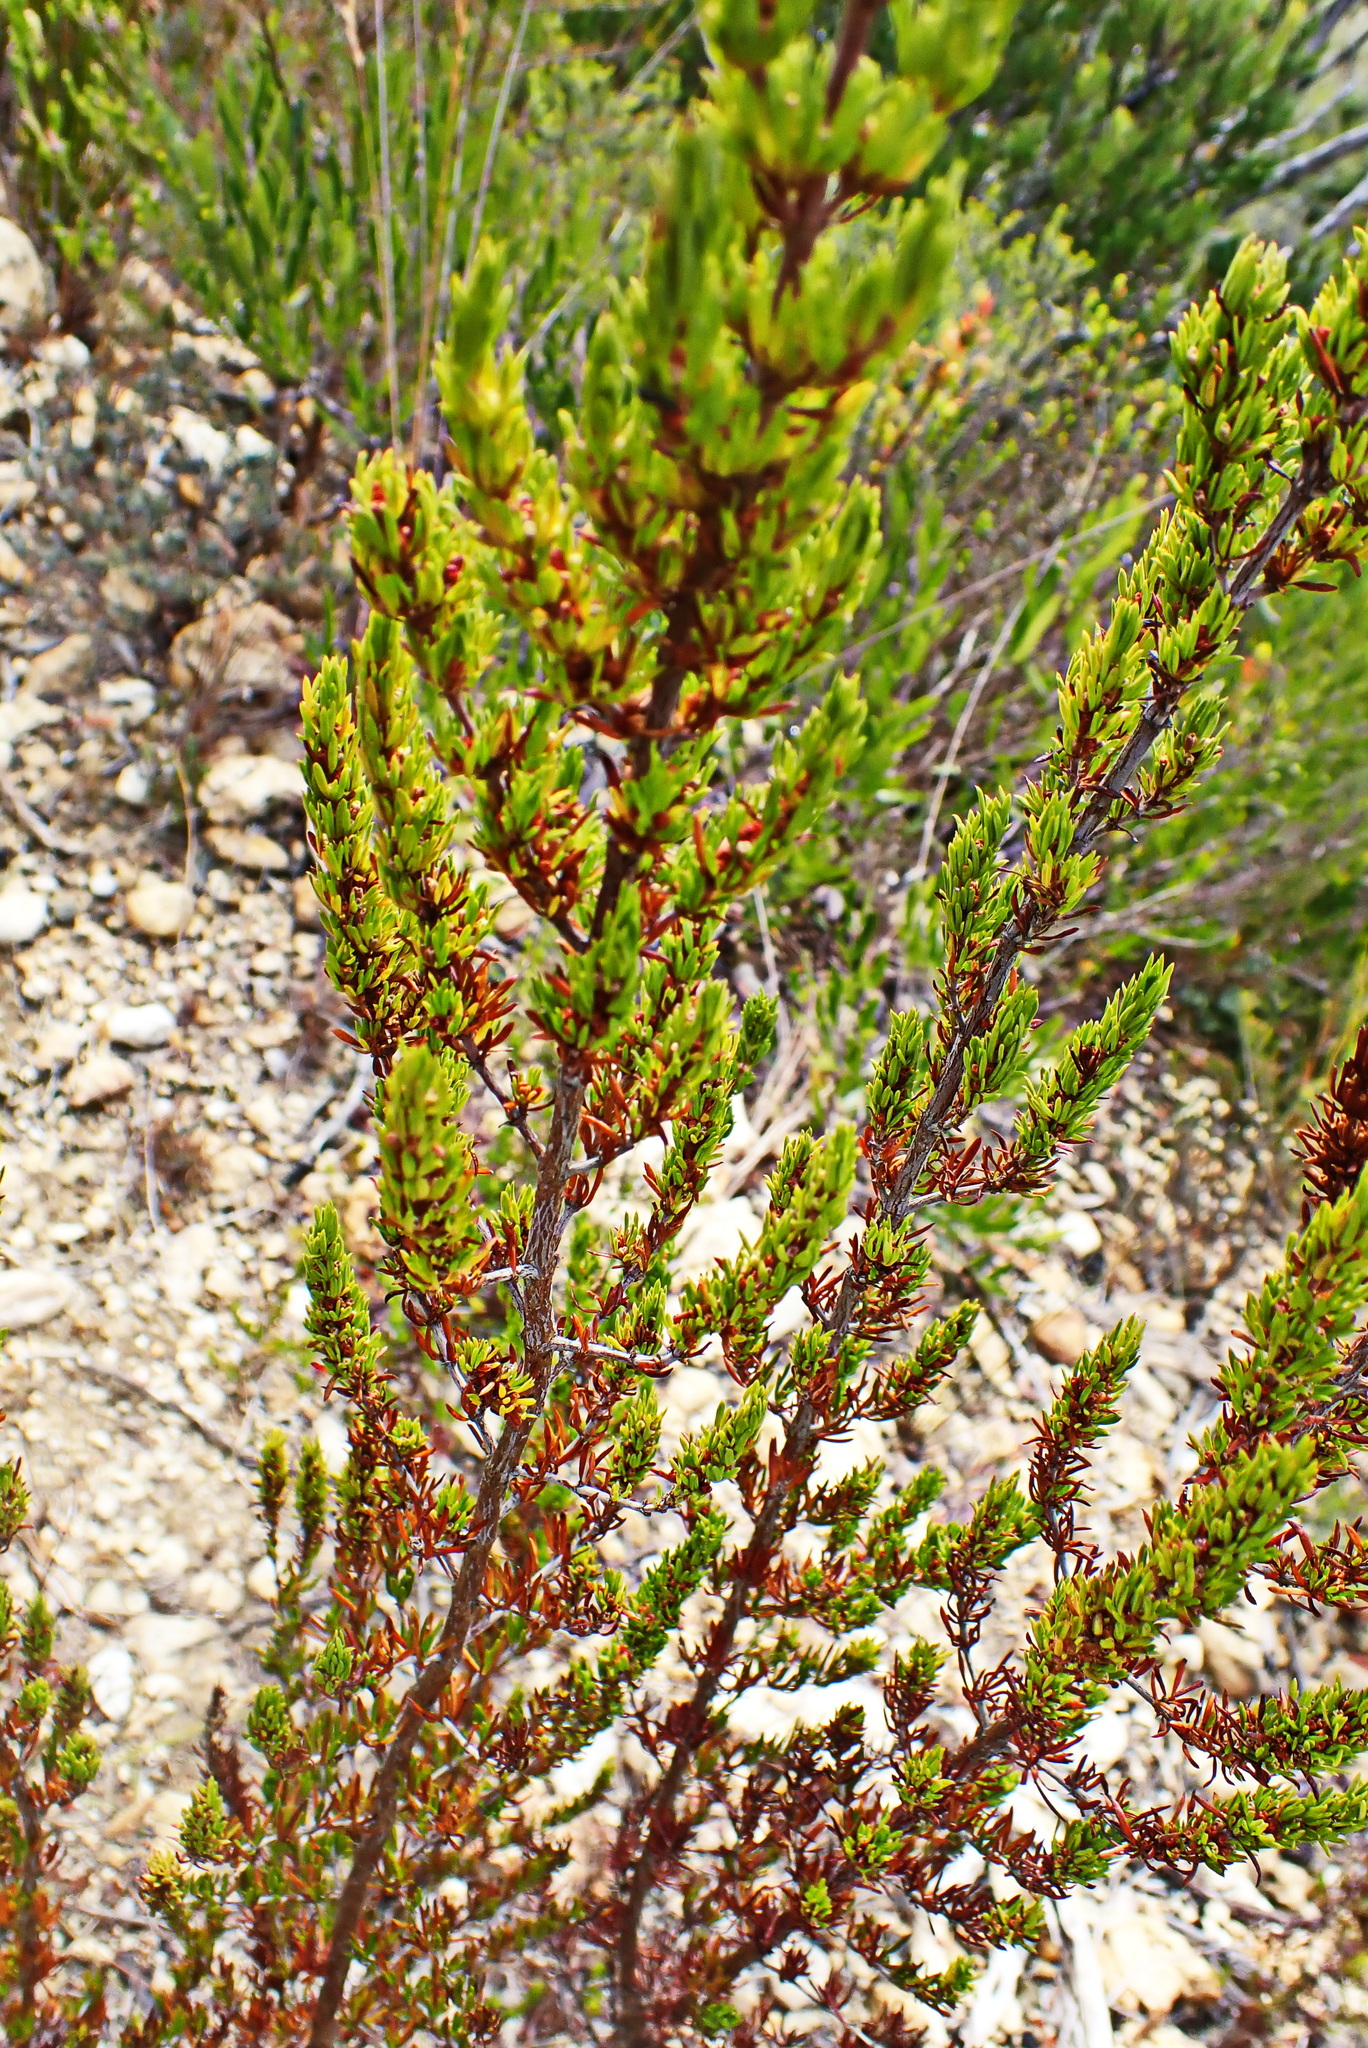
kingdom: Plantae
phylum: Tracheophyta
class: Magnoliopsida
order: Gentianales
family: Rubiaceae
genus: Anthospermum
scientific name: Anthospermum aethiopicum
